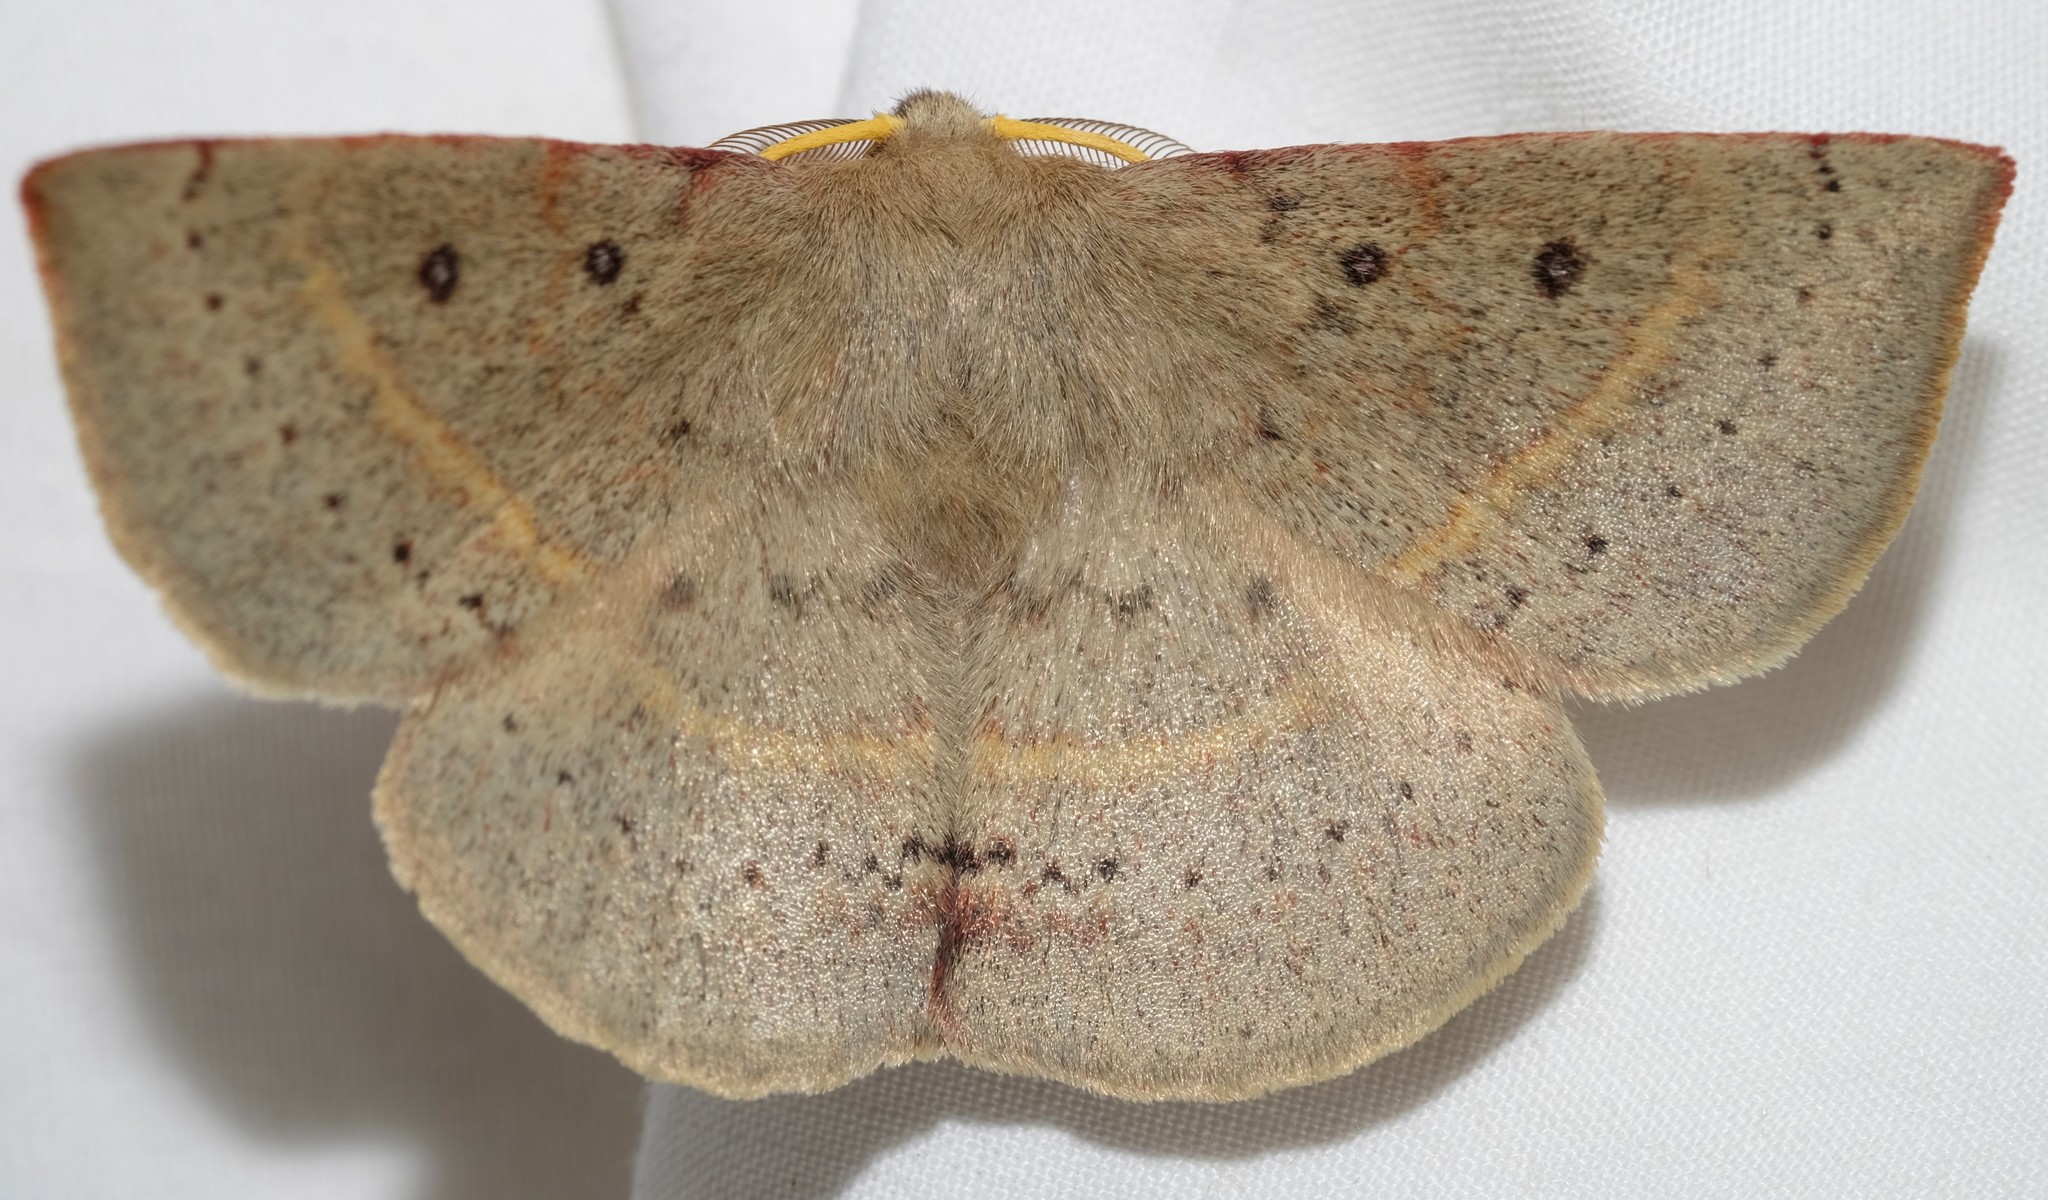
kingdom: Animalia
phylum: Arthropoda
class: Insecta
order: Lepidoptera
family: Anthelidae
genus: Anthela
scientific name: Anthela acuta
